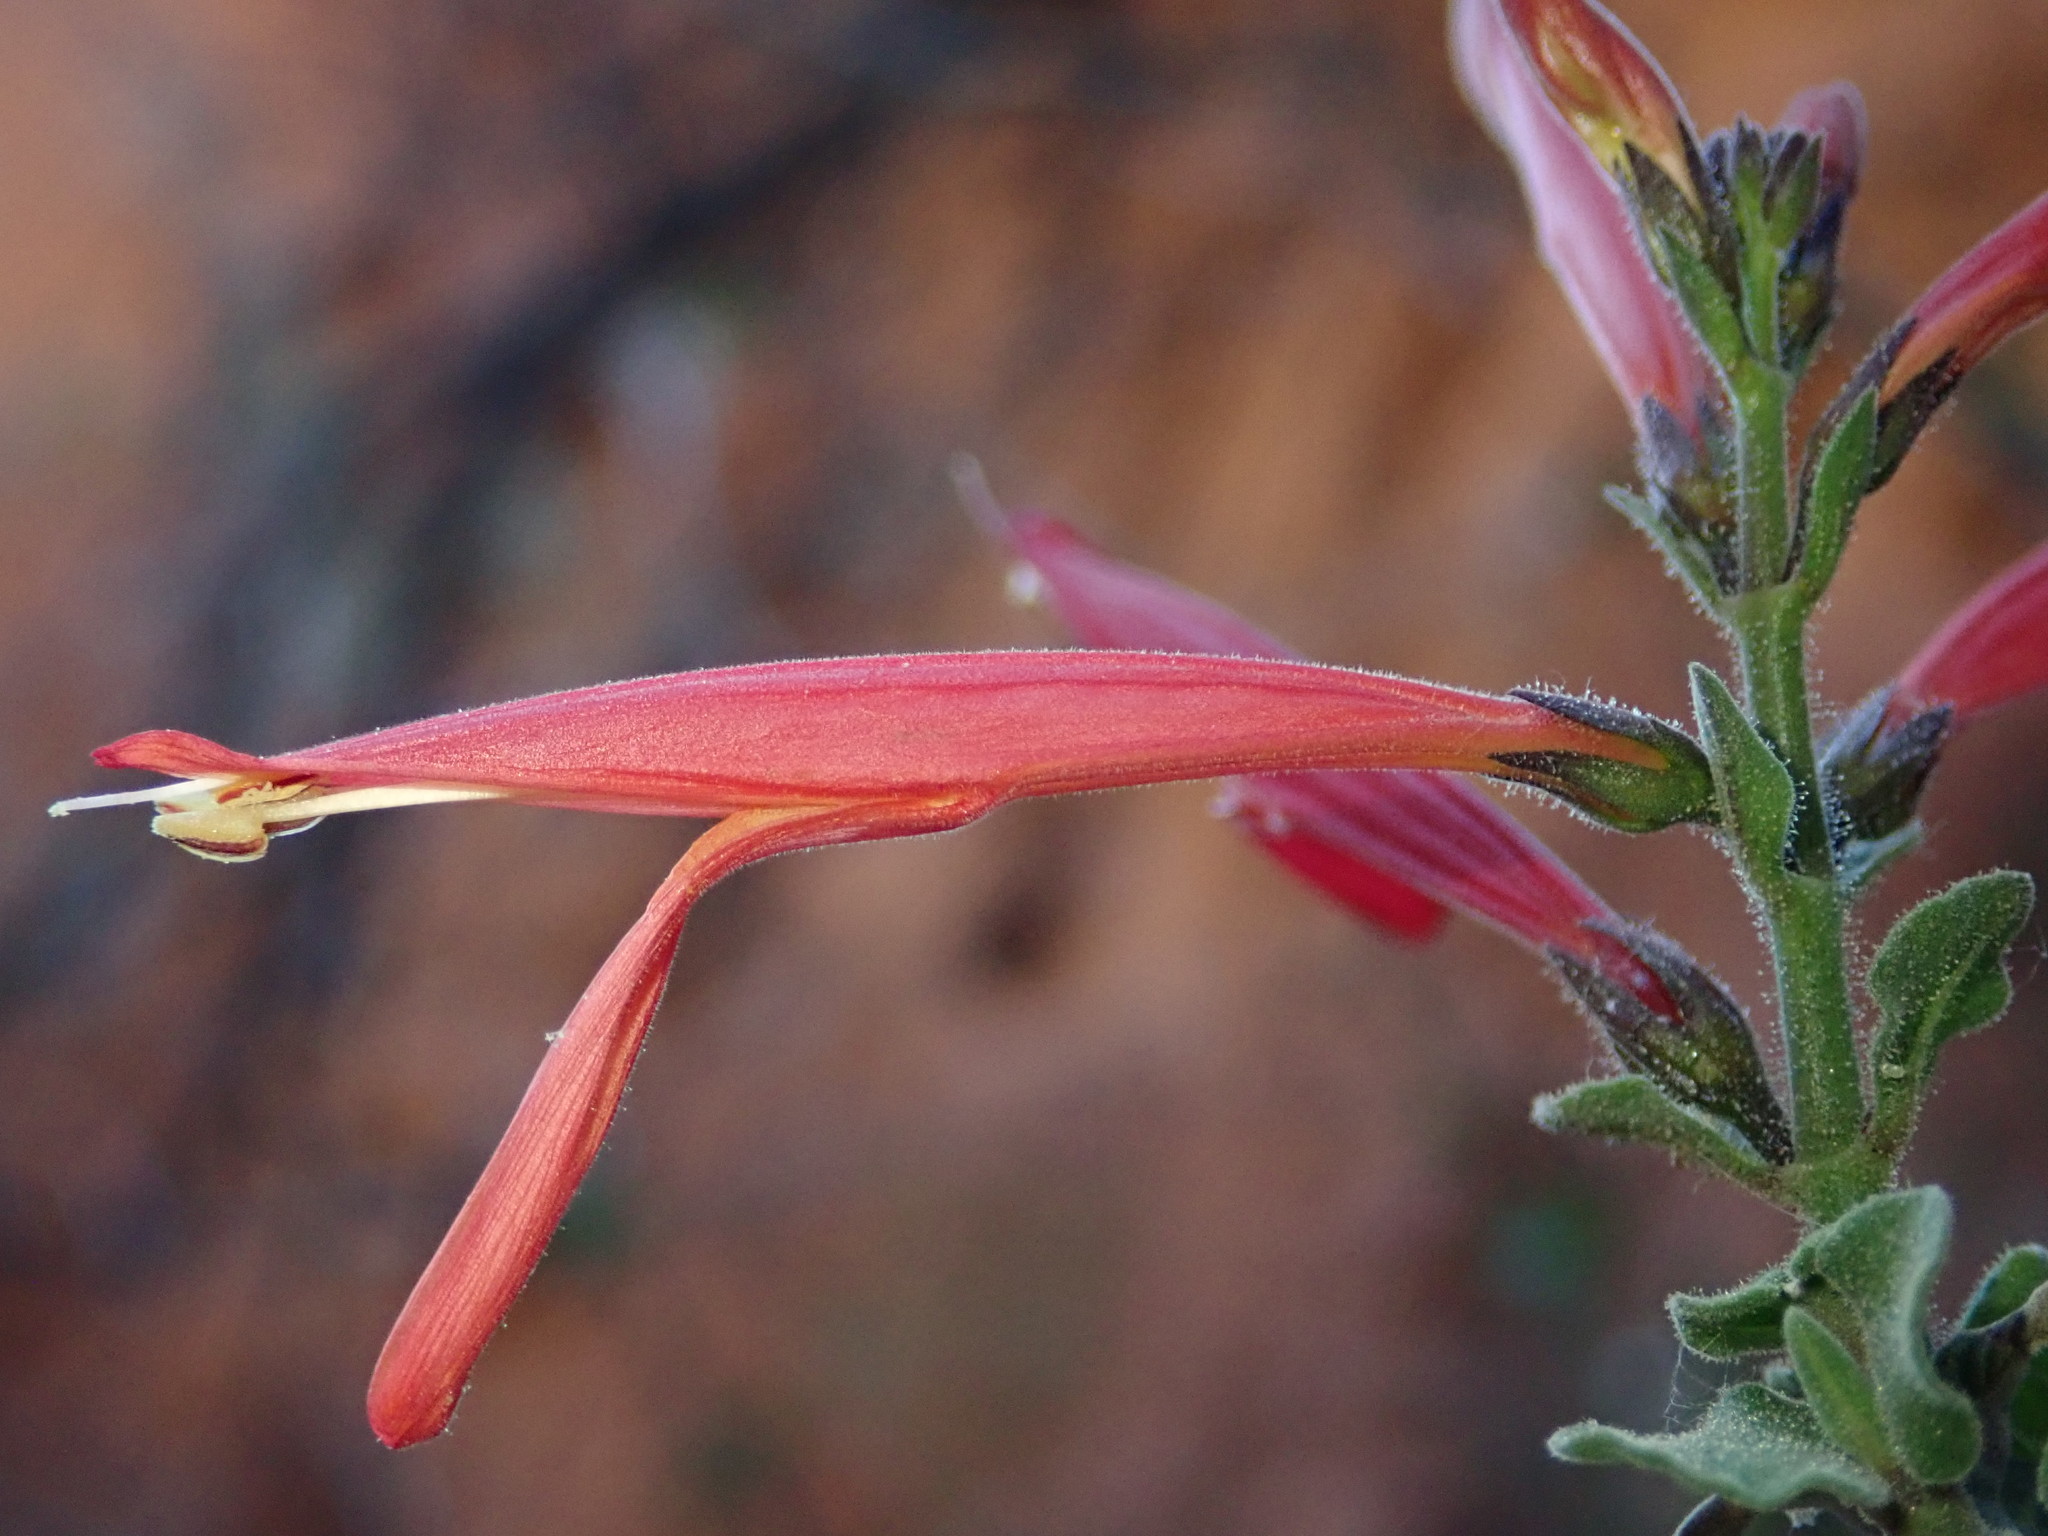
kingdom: Plantae
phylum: Tracheophyta
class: Magnoliopsida
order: Lamiales
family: Acanthaceae
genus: Justicia
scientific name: Justicia californica
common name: Chuparosa-honeysuckle
